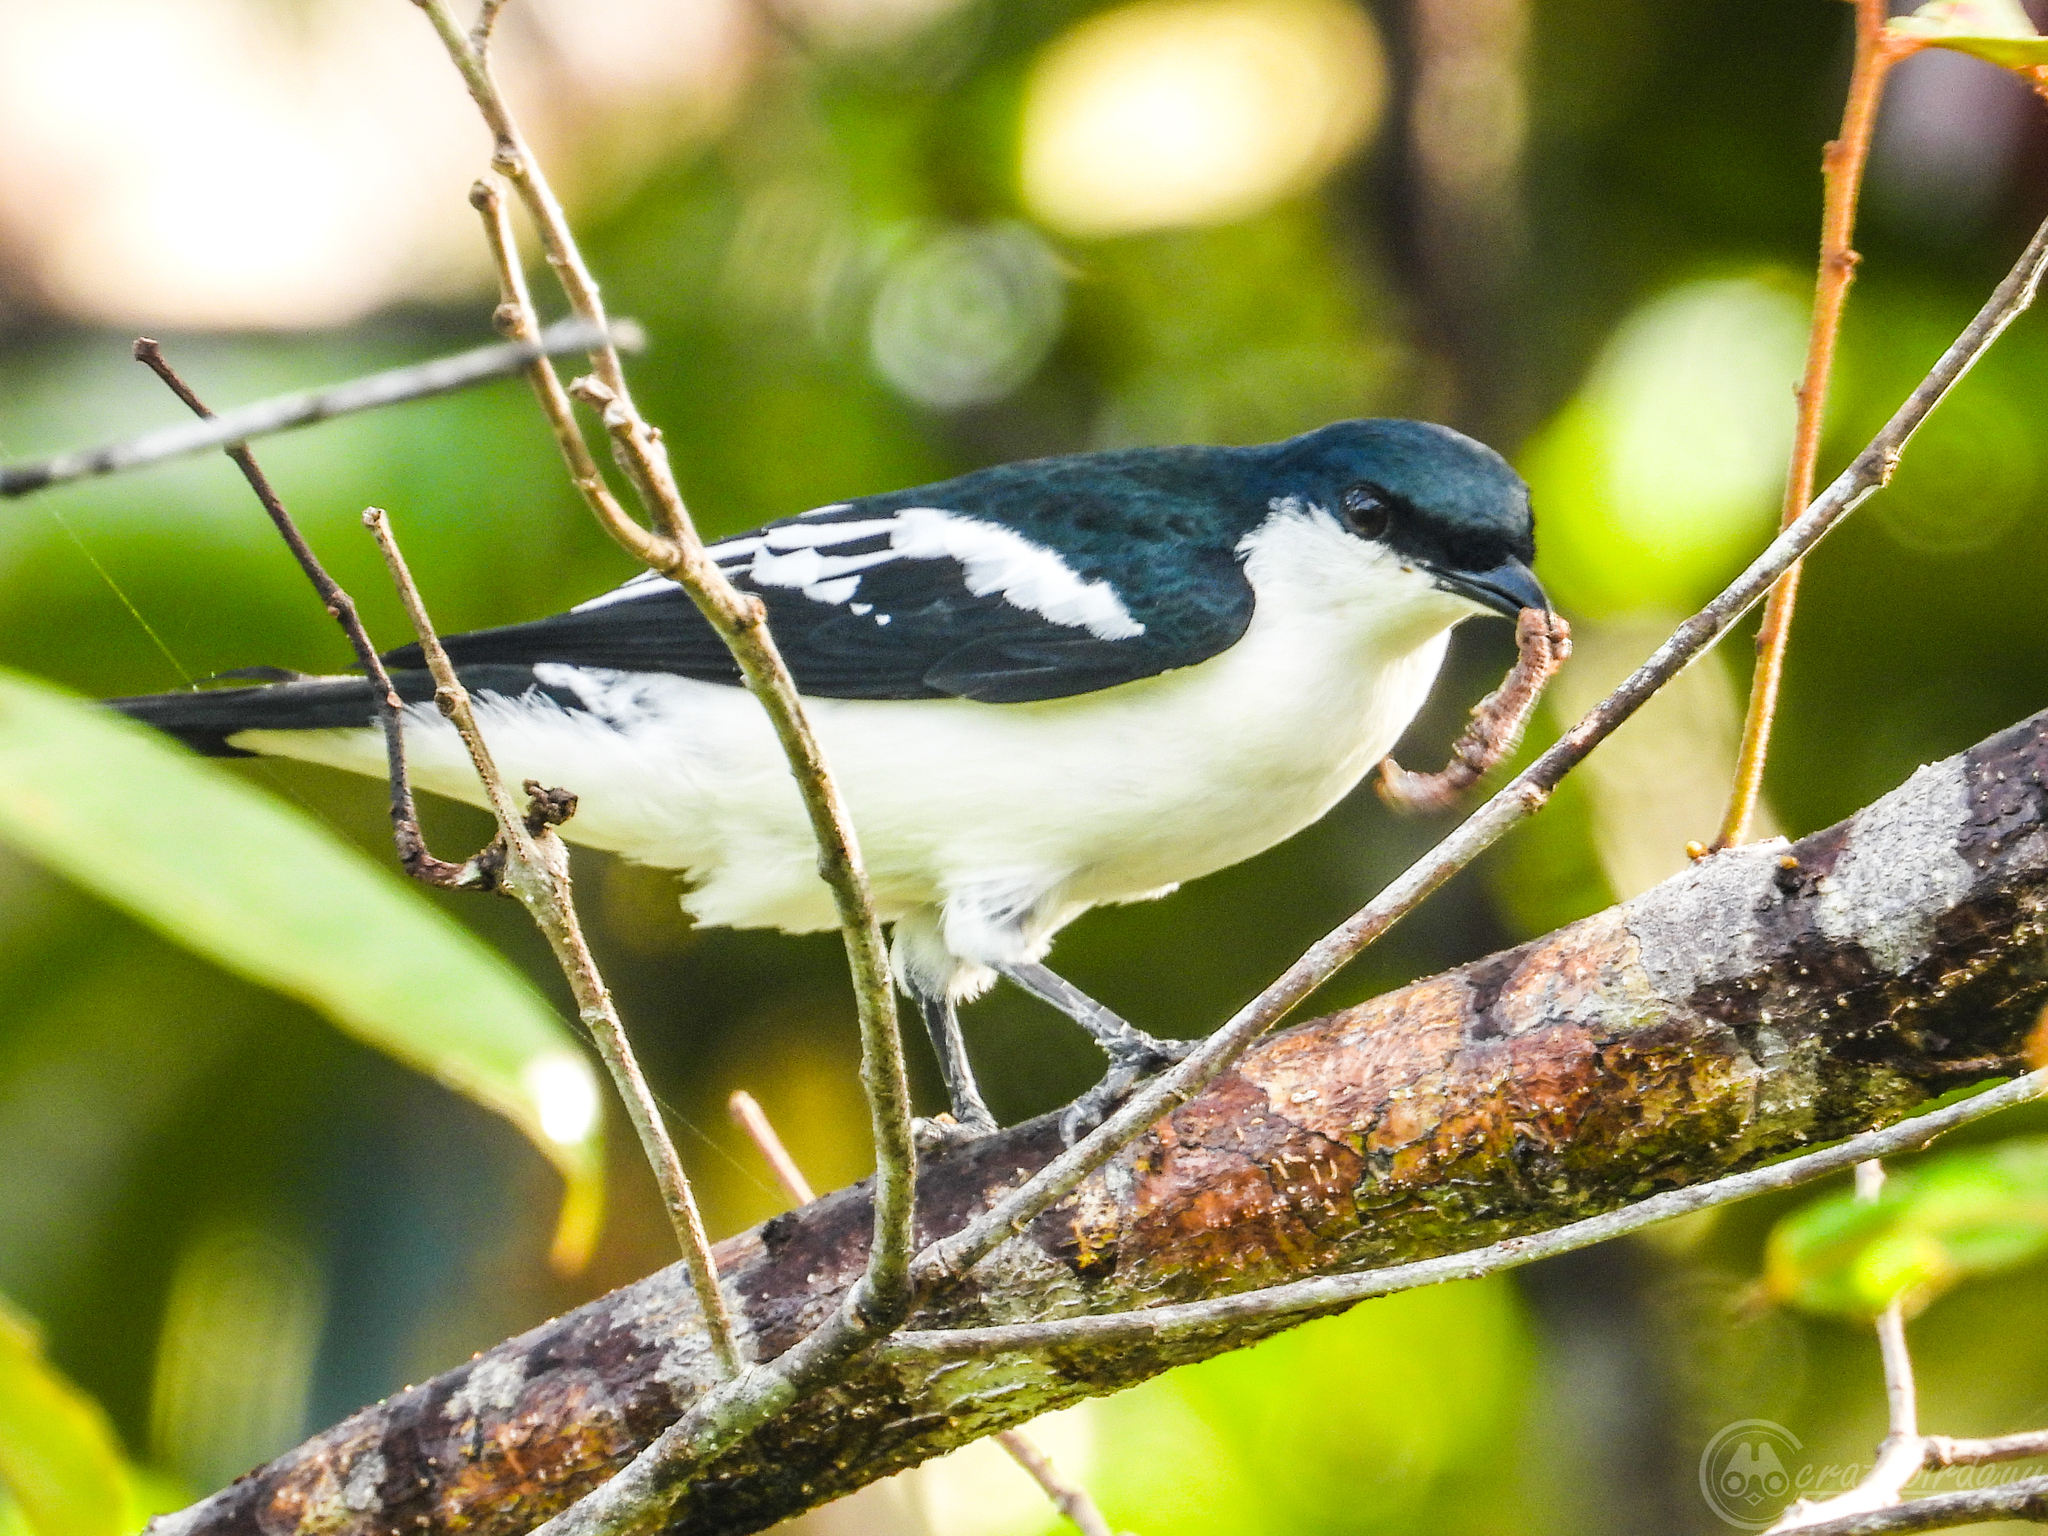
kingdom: Animalia
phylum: Chordata
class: Aves
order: Passeriformes
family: Campephagidae
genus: Lalage
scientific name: Lalage atrovirens
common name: Black-browed triller
